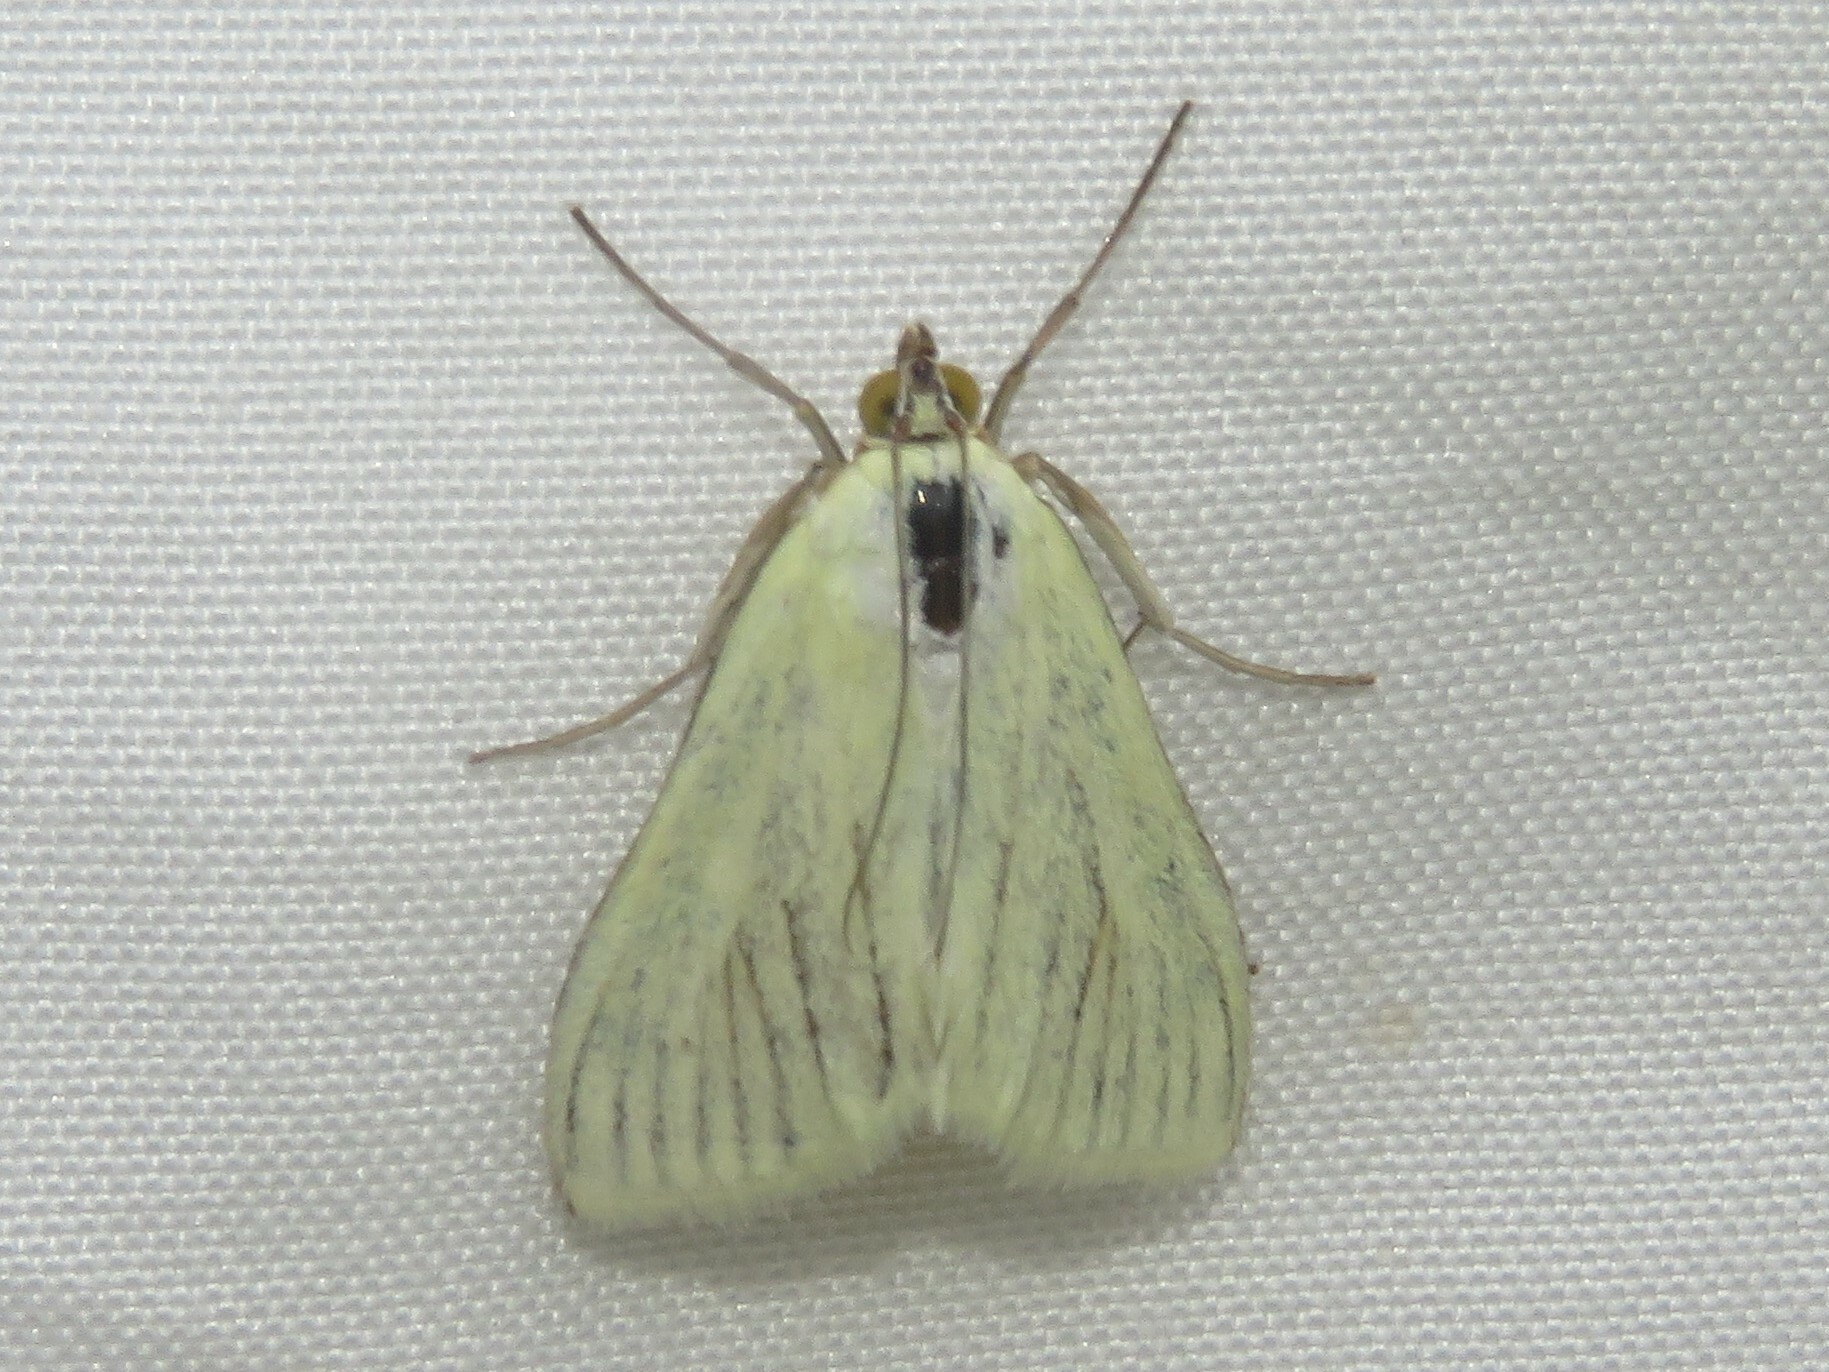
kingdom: Animalia
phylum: Arthropoda
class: Insecta
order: Lepidoptera
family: Crambidae
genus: Sitochroa
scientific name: Sitochroa palealis
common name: Greenish-yellow sitochroa moth
